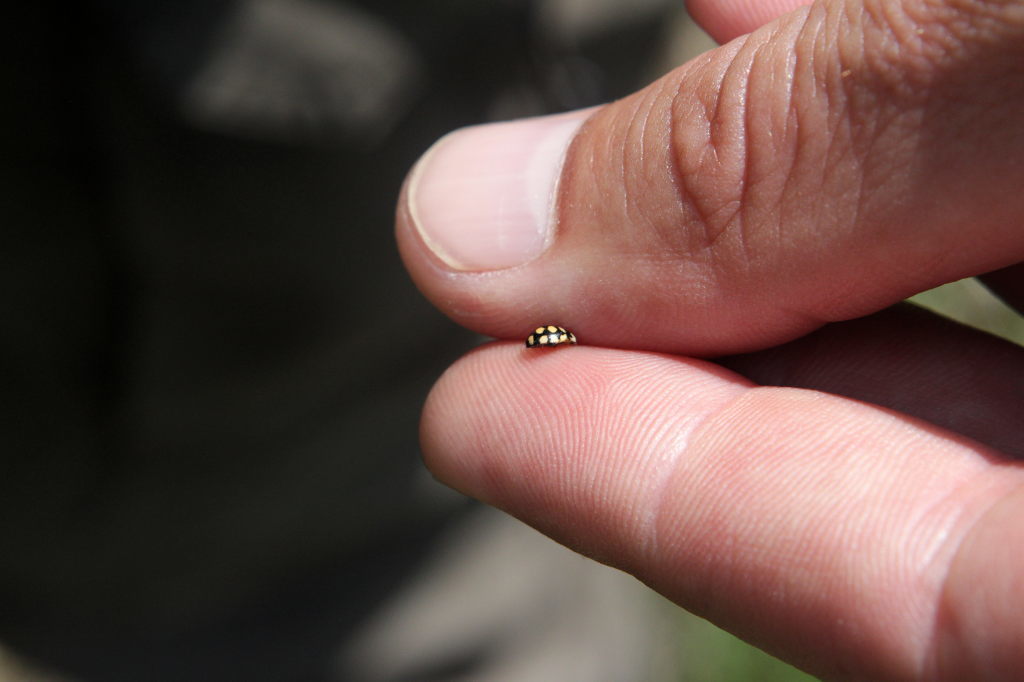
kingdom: Animalia
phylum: Arthropoda
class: Insecta
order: Coleoptera
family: Coccinellidae
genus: Coccinula
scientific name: Coccinula quatuordecimpustulata
